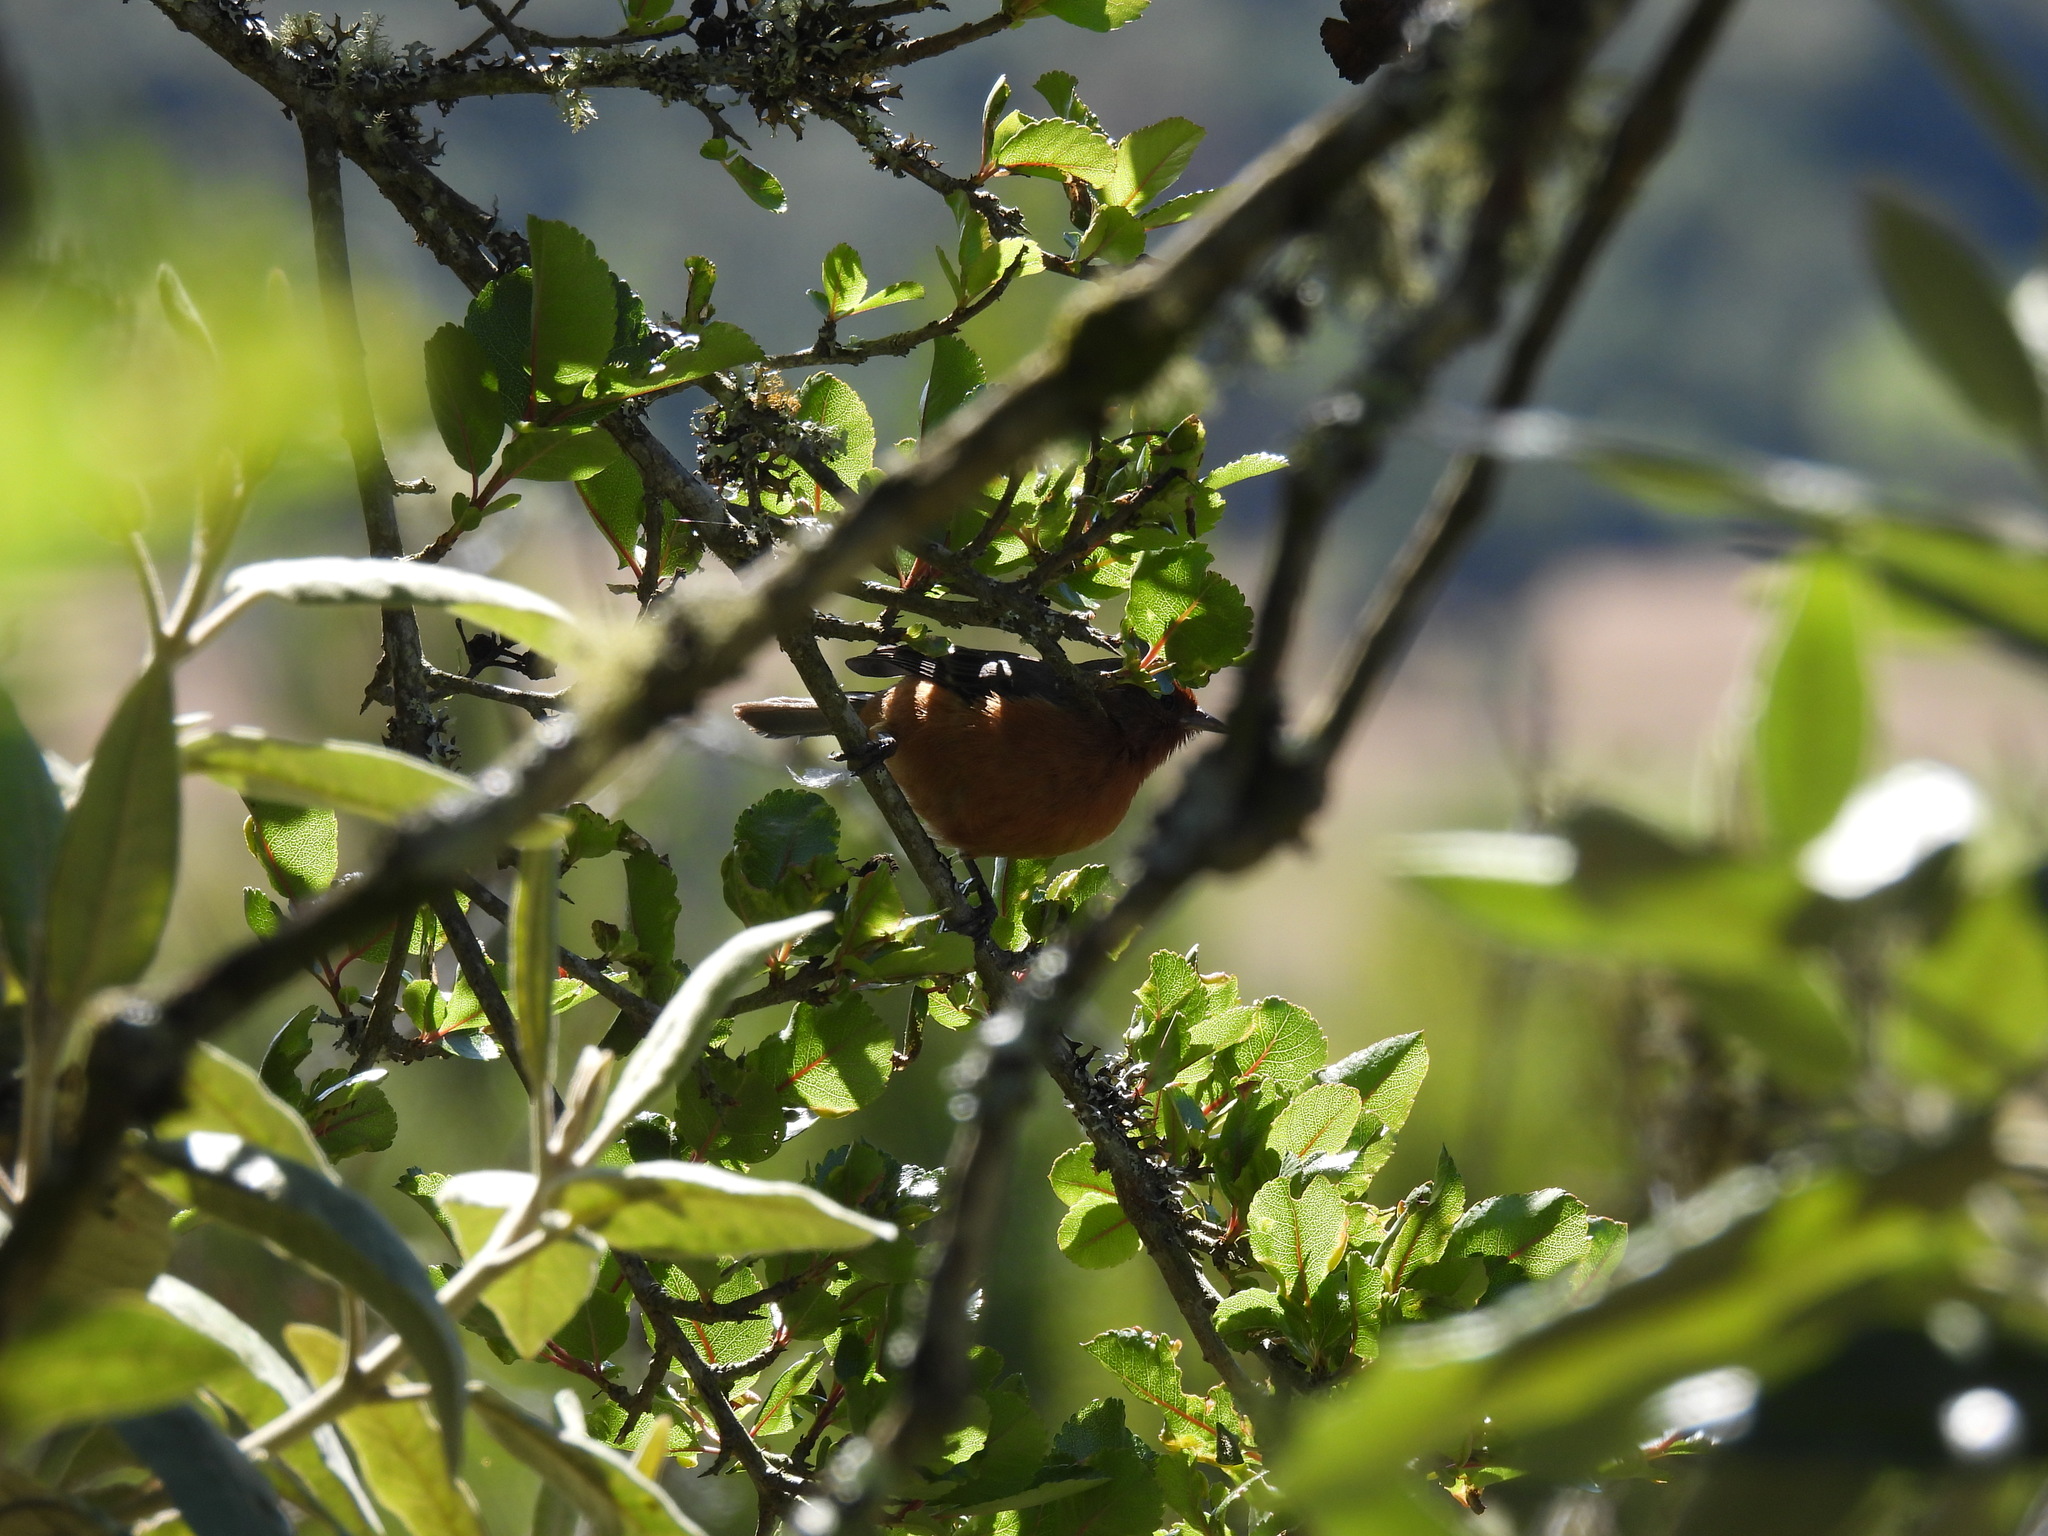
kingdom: Animalia
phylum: Chordata
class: Aves
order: Passeriformes
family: Thraupidae
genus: Conirostrum
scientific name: Conirostrum rufum
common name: Rufous-browed conebill
